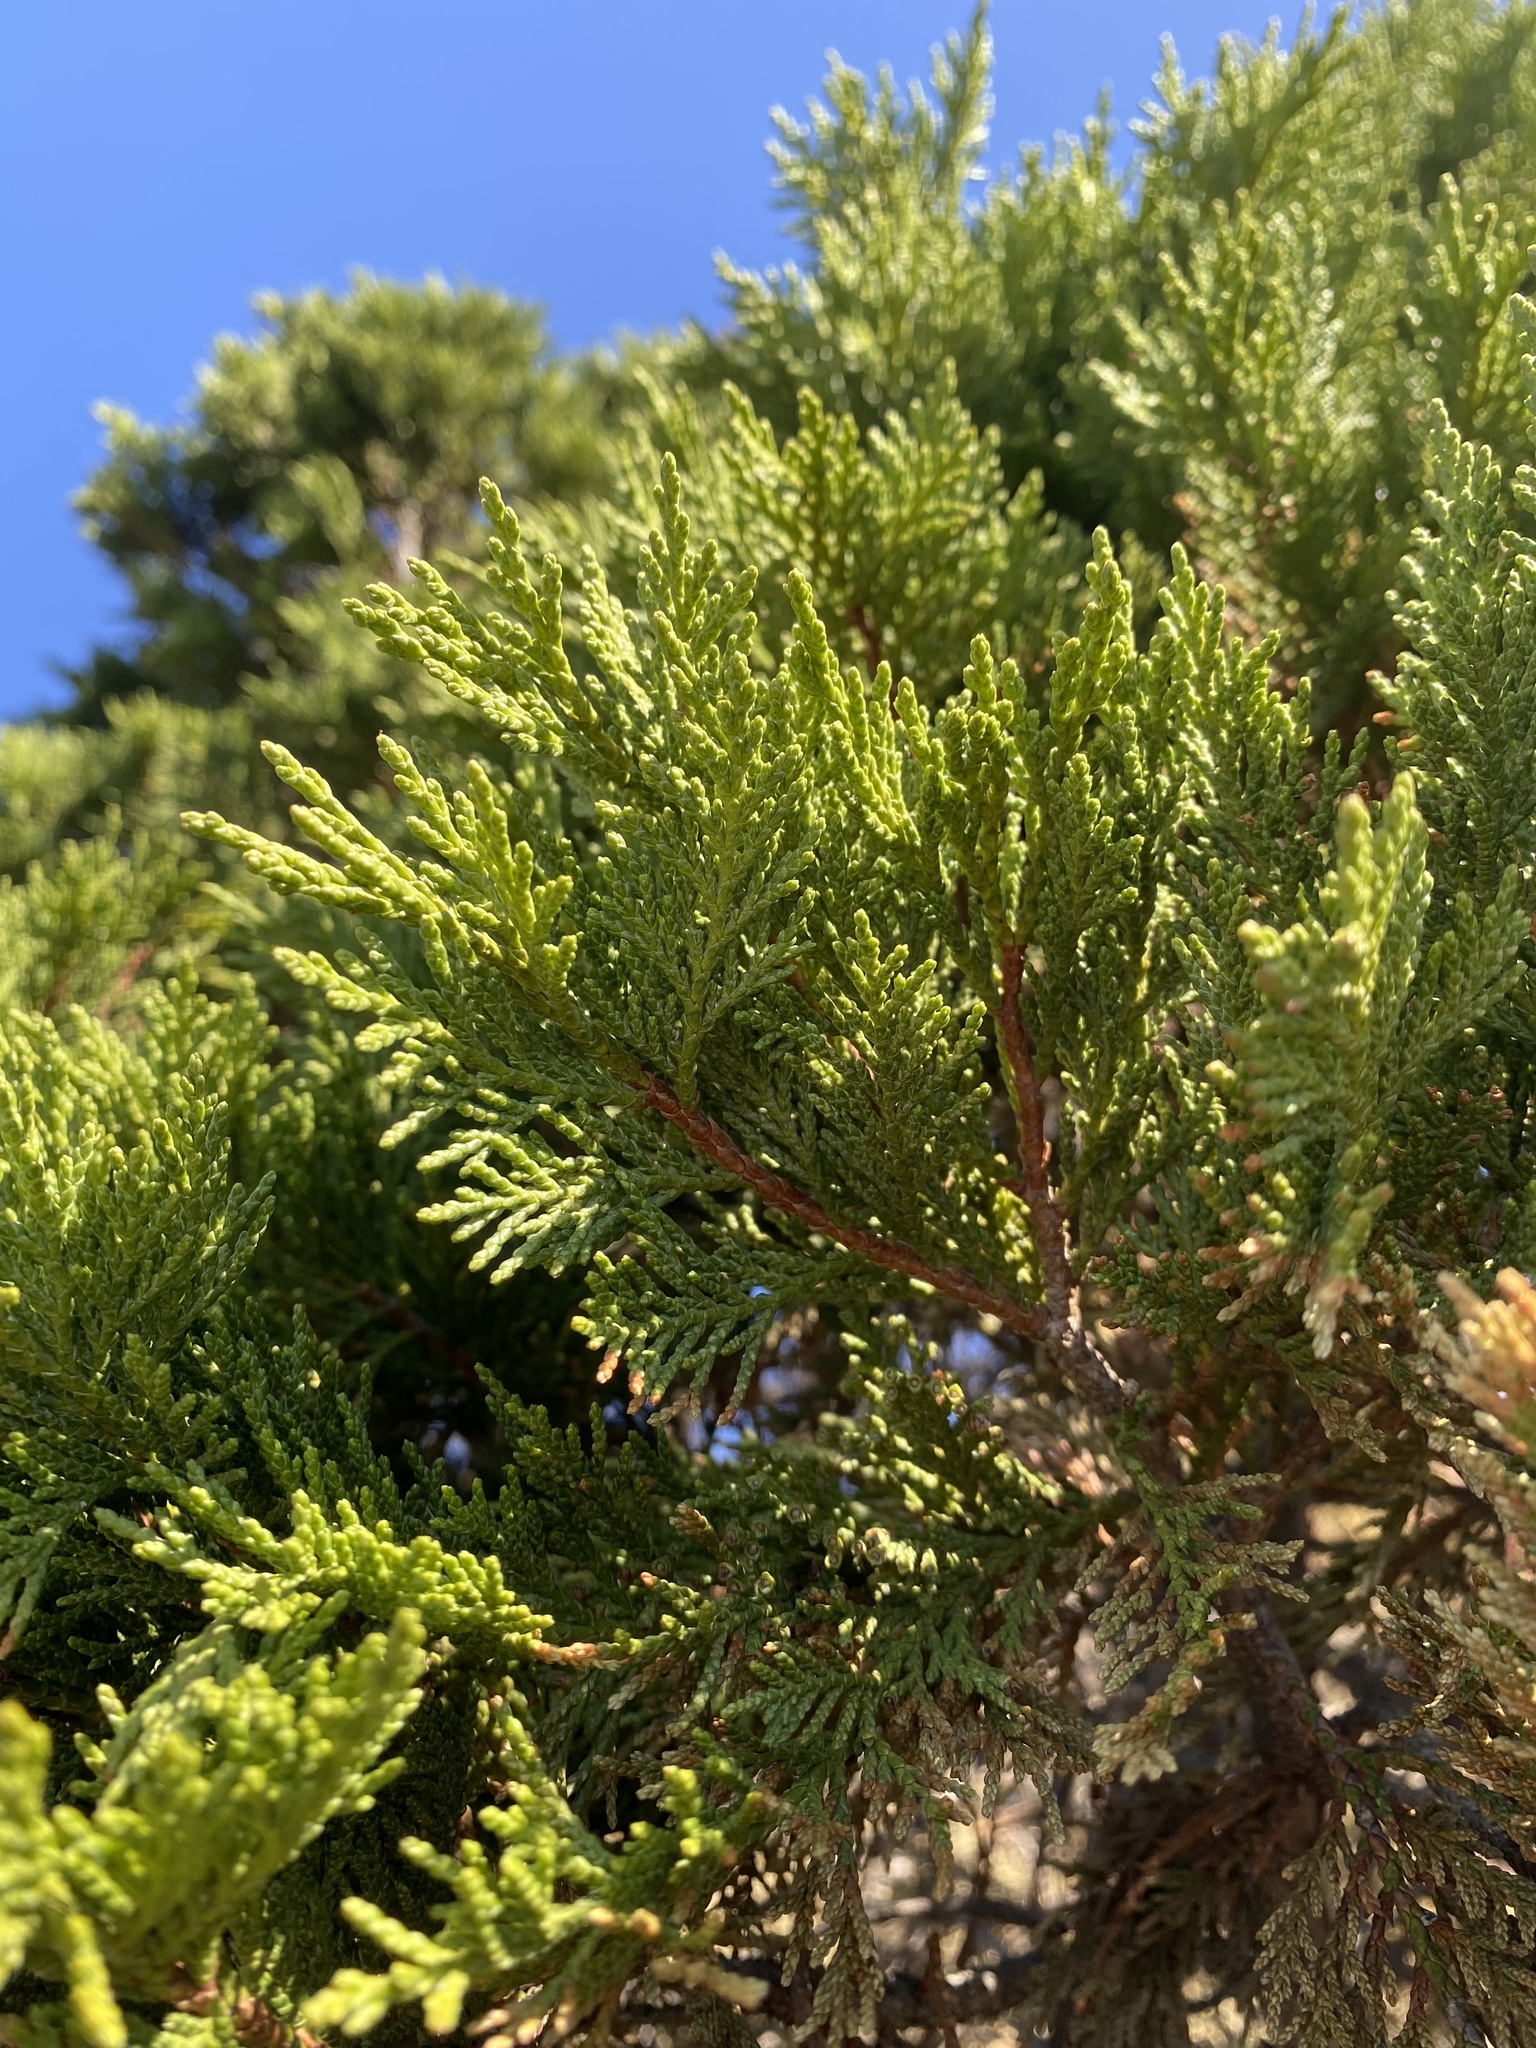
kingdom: Plantae
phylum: Tracheophyta
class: Pinopsida
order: Pinales
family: Cupressaceae
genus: Juniperus
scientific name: Juniperus excelsa
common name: Crimean juniper
